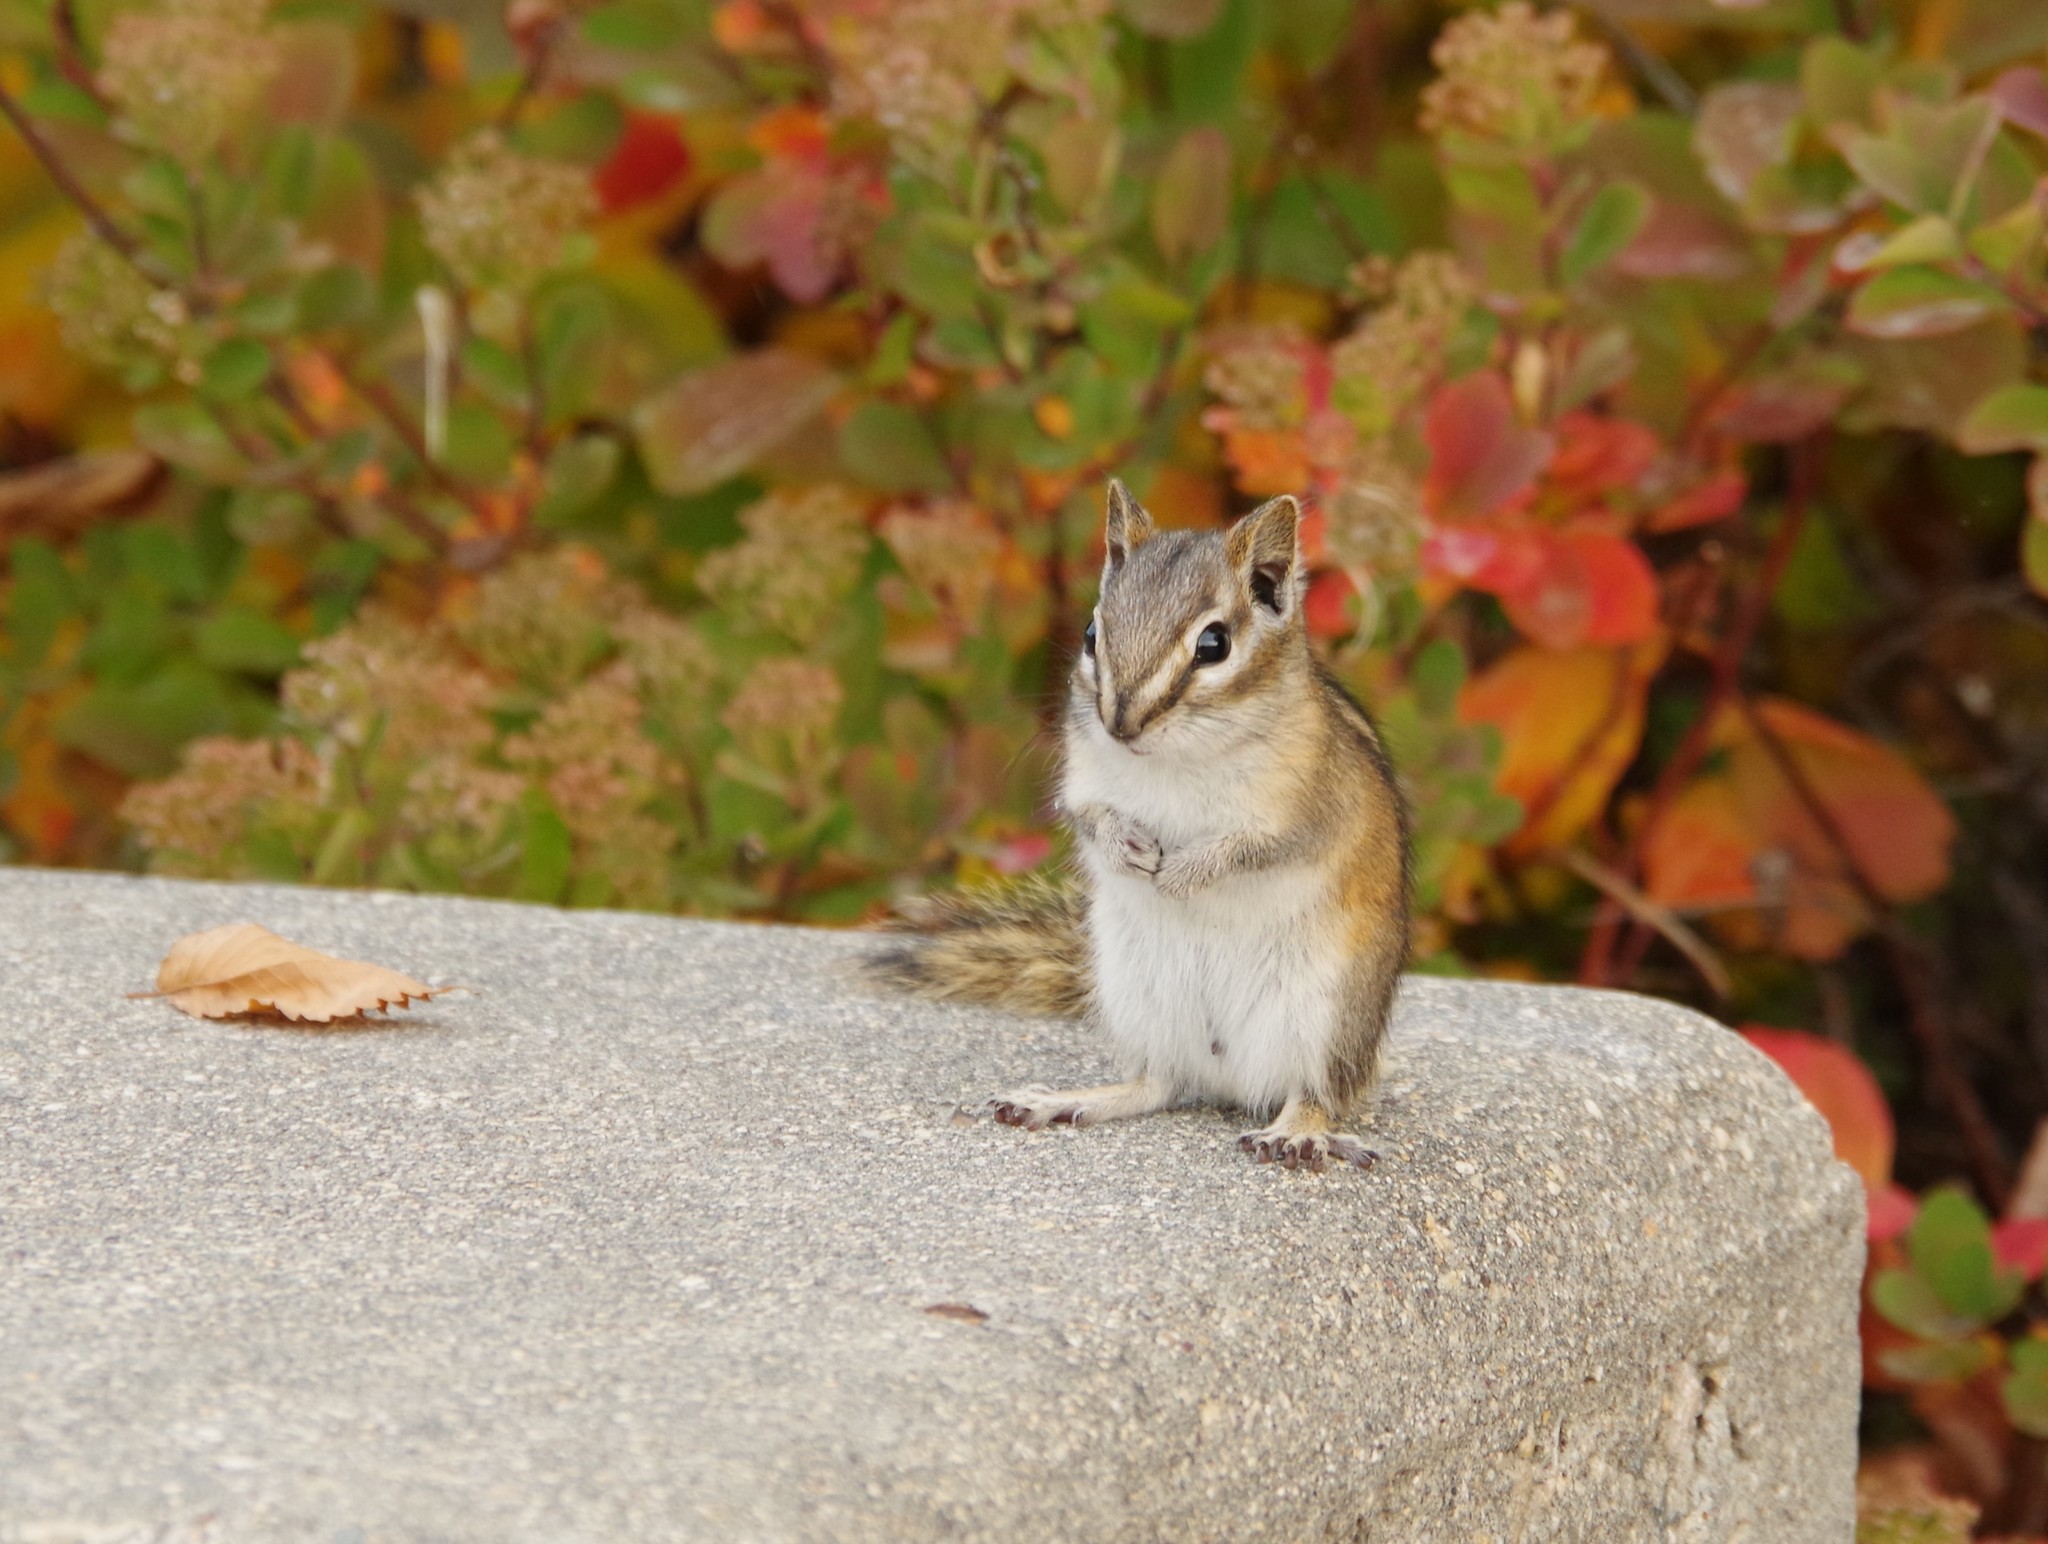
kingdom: Animalia
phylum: Chordata
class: Mammalia
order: Rodentia
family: Sciuridae
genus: Tamias
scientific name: Tamias minimus
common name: Least chipmunk
